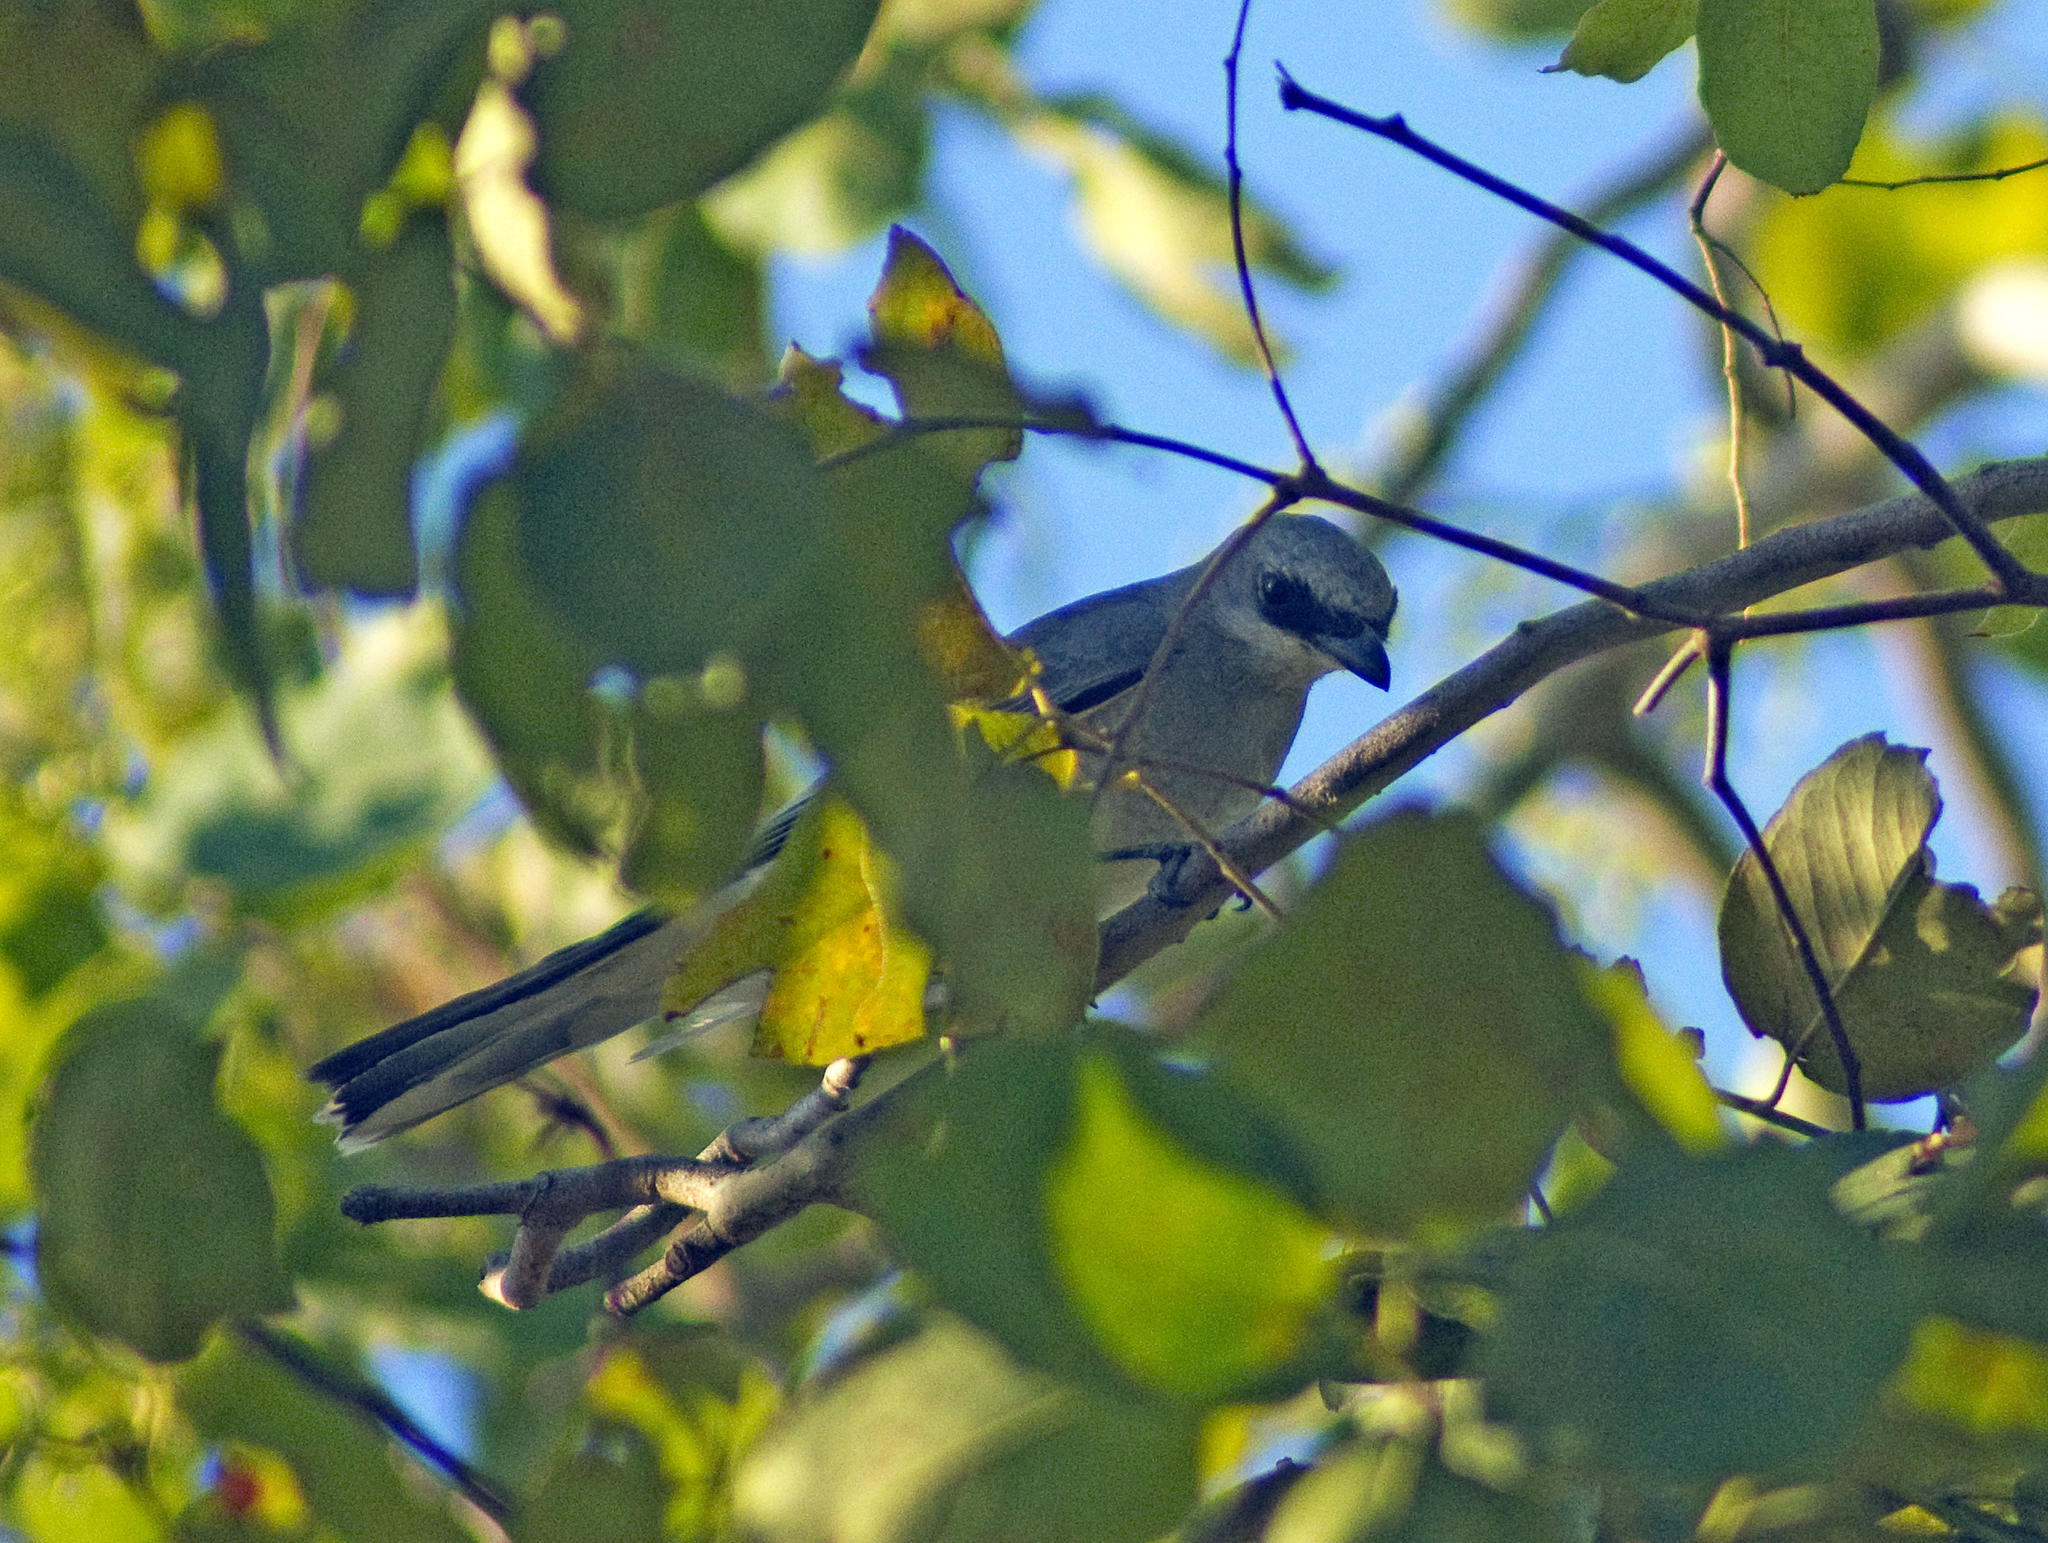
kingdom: Animalia
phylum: Chordata
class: Aves
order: Passeriformes
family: Campephagidae
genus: Coracina
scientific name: Coracina papuensis
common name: White-bellied cuckooshrike
